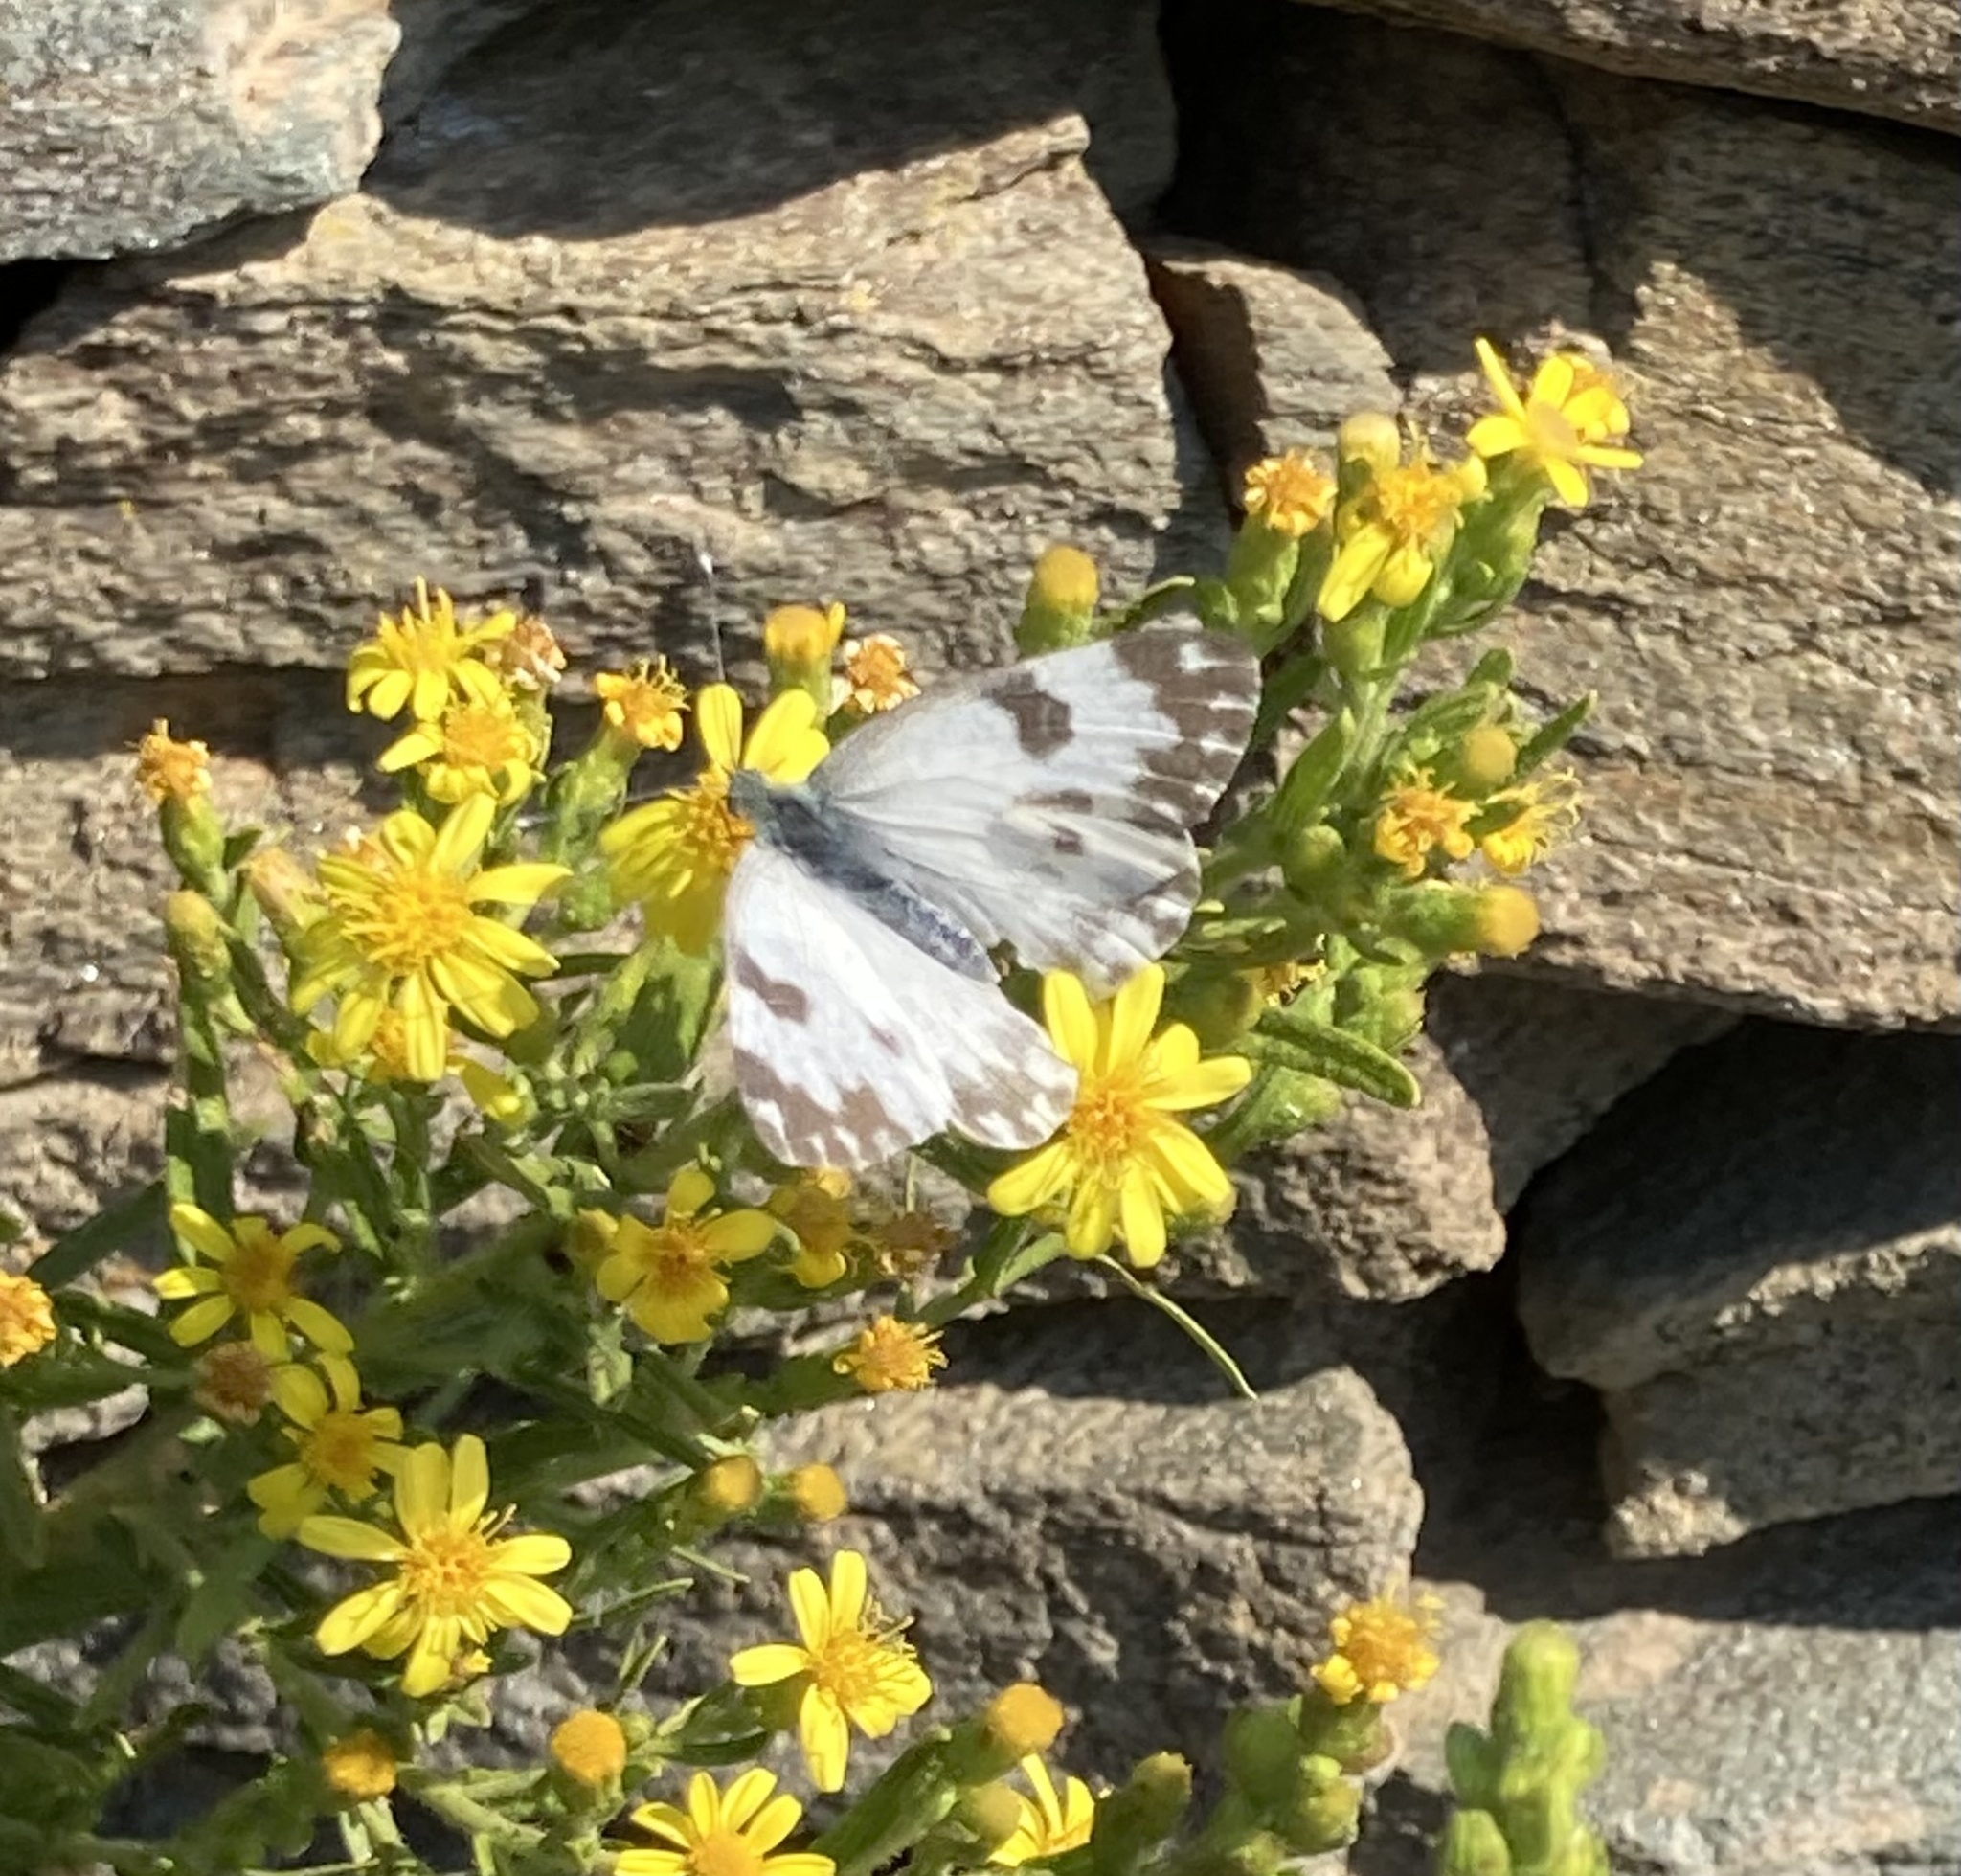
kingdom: Animalia
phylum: Arthropoda
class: Insecta
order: Lepidoptera
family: Pieridae
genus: Pontia
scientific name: Pontia edusa
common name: Eastern bath white
